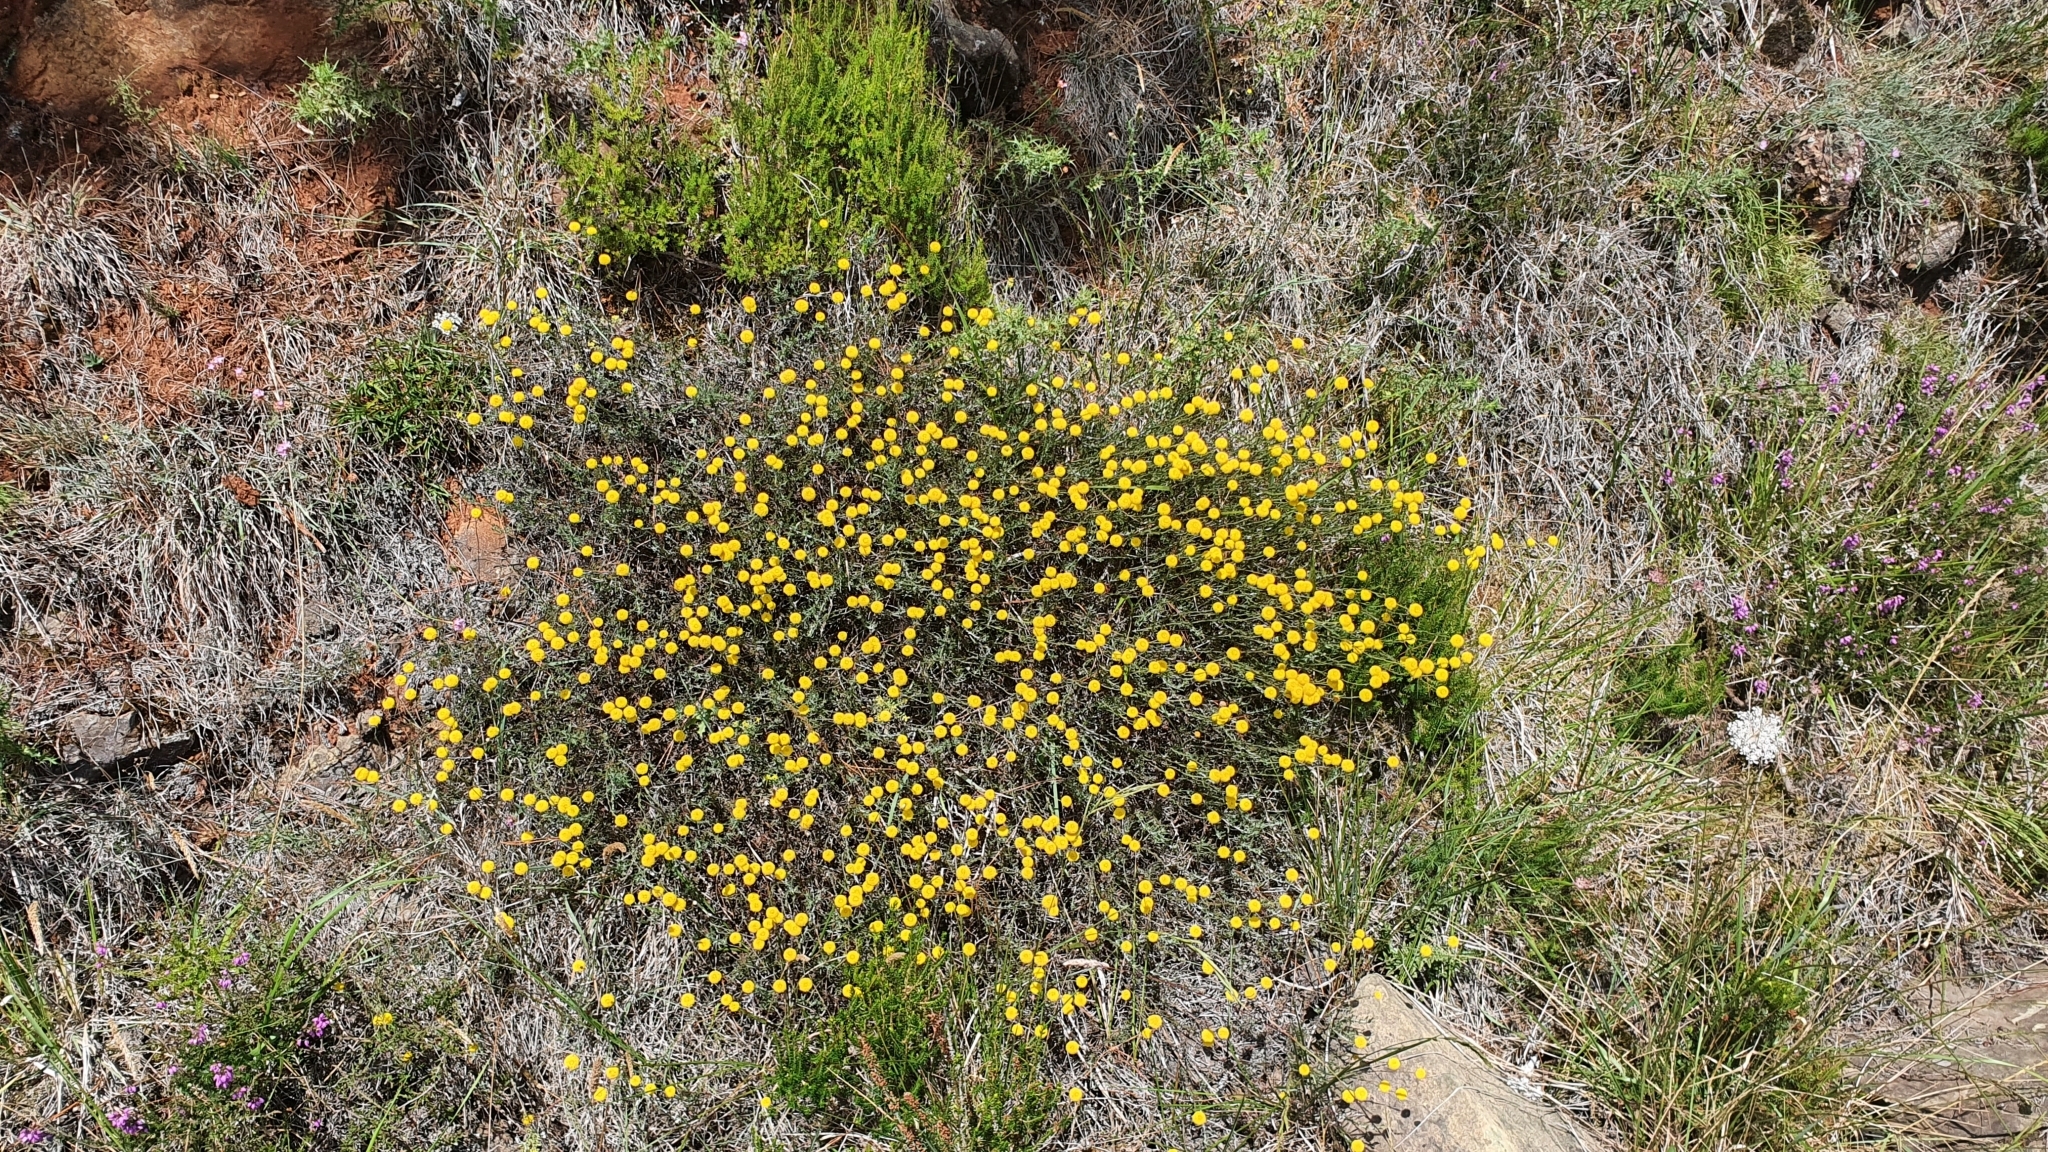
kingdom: Plantae
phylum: Tracheophyta
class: Magnoliopsida
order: Asterales
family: Asteraceae
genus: Santolina
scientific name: Santolina melidensis
